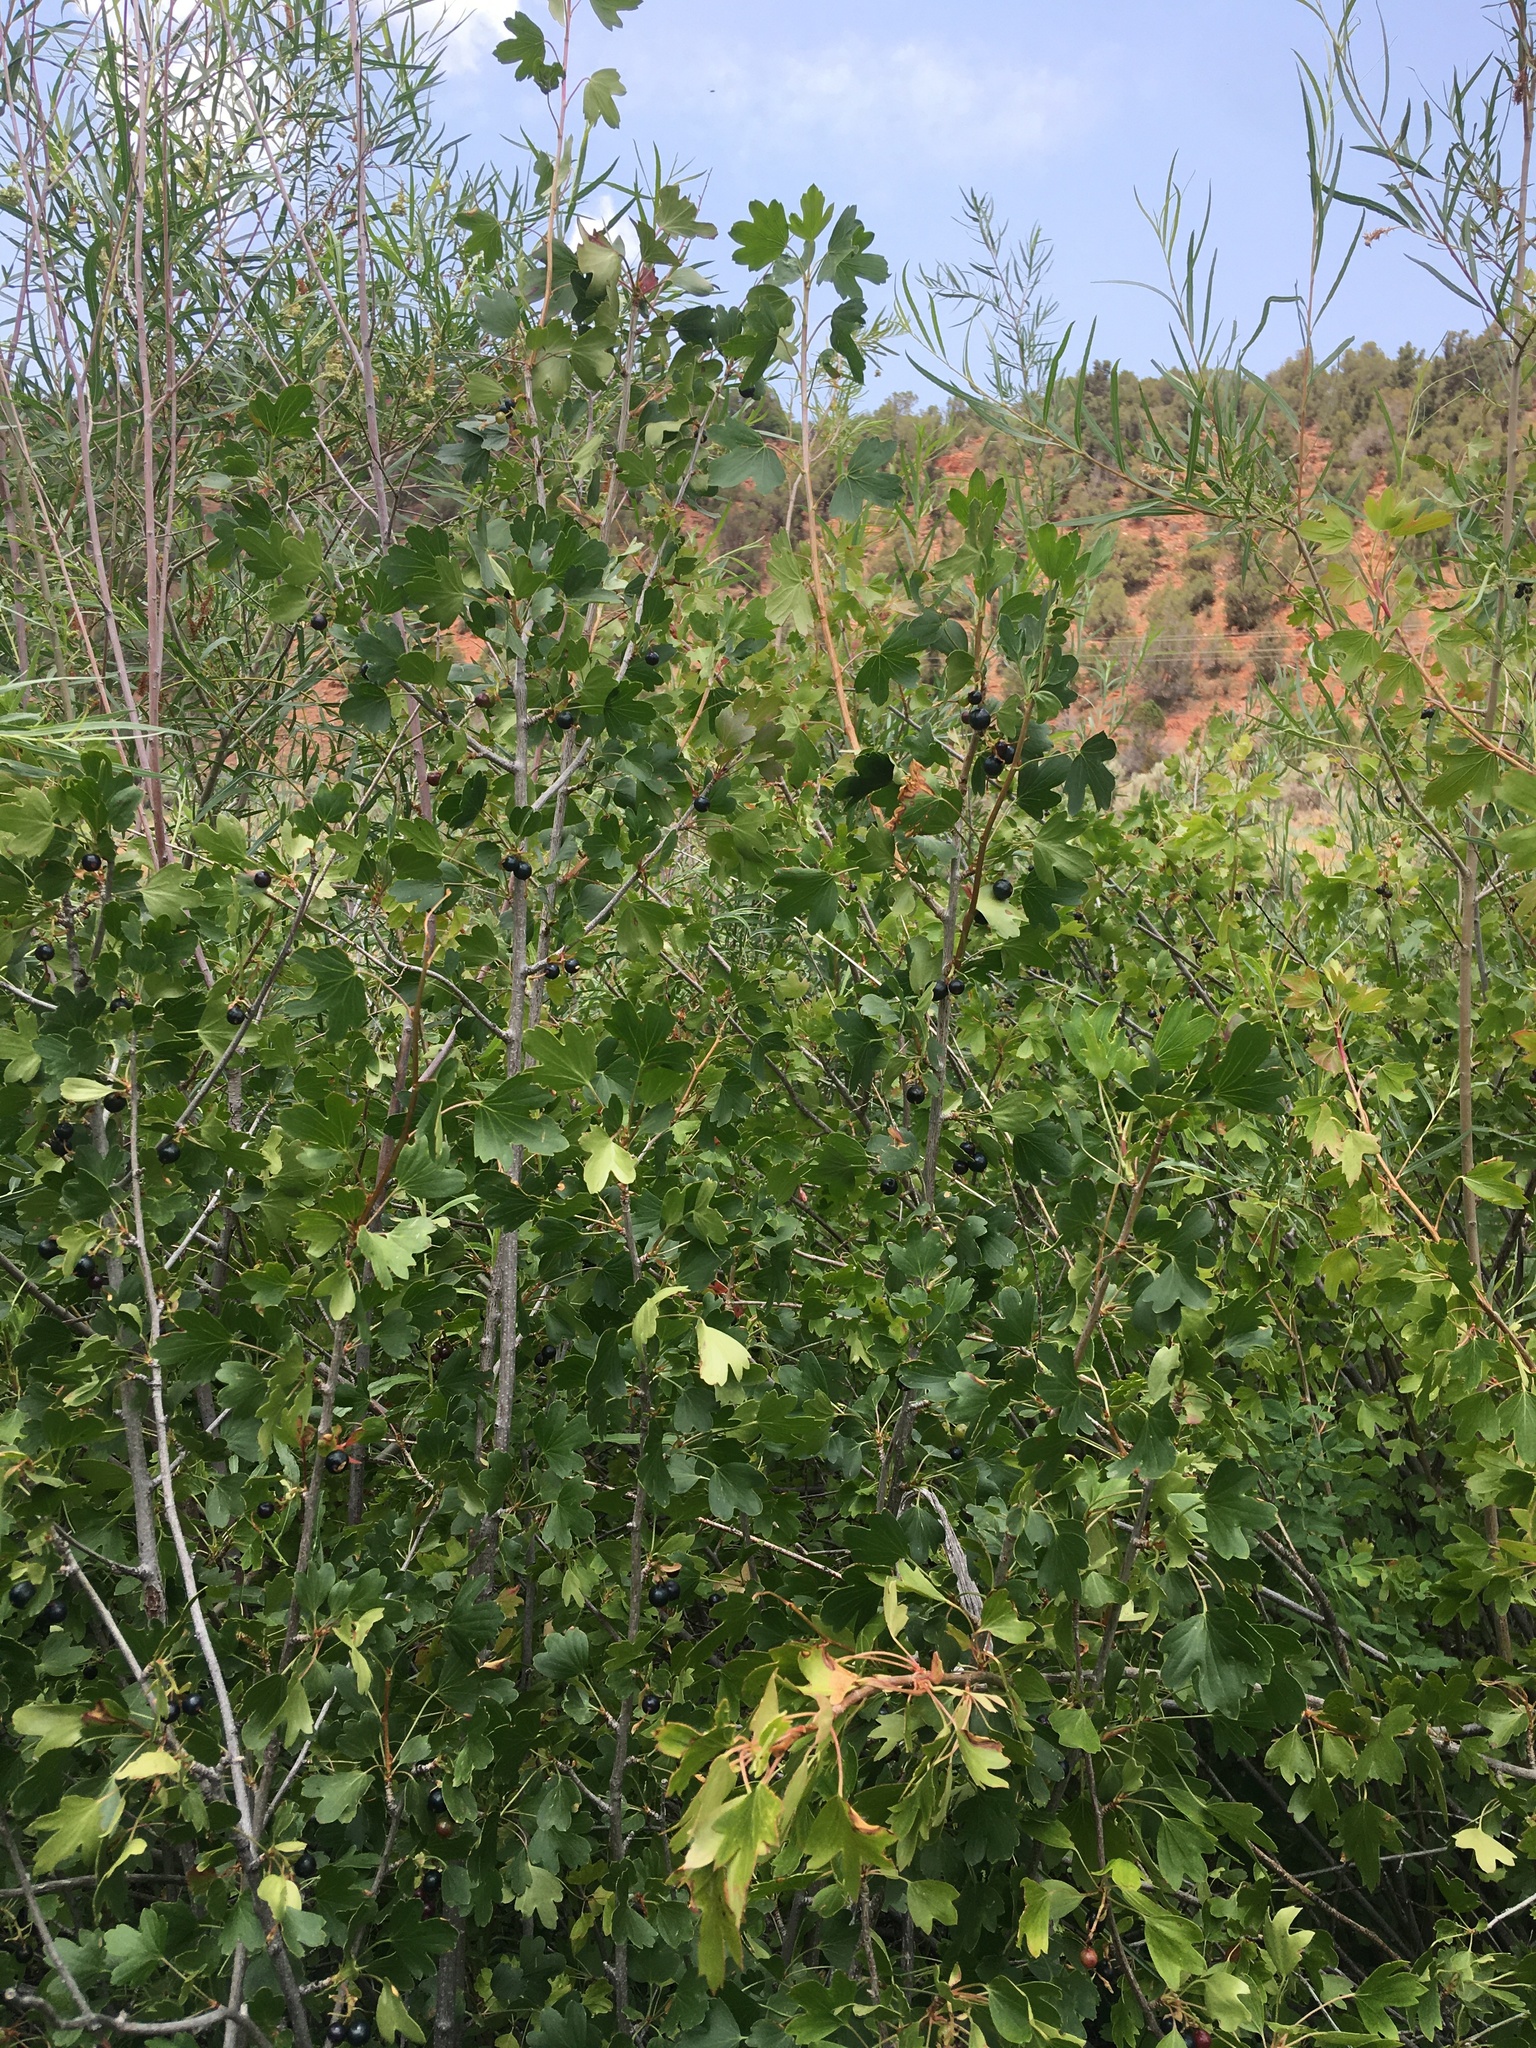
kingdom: Plantae
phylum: Tracheophyta
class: Magnoliopsida
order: Saxifragales
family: Grossulariaceae
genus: Ribes
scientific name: Ribes aureum
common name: Golden currant
